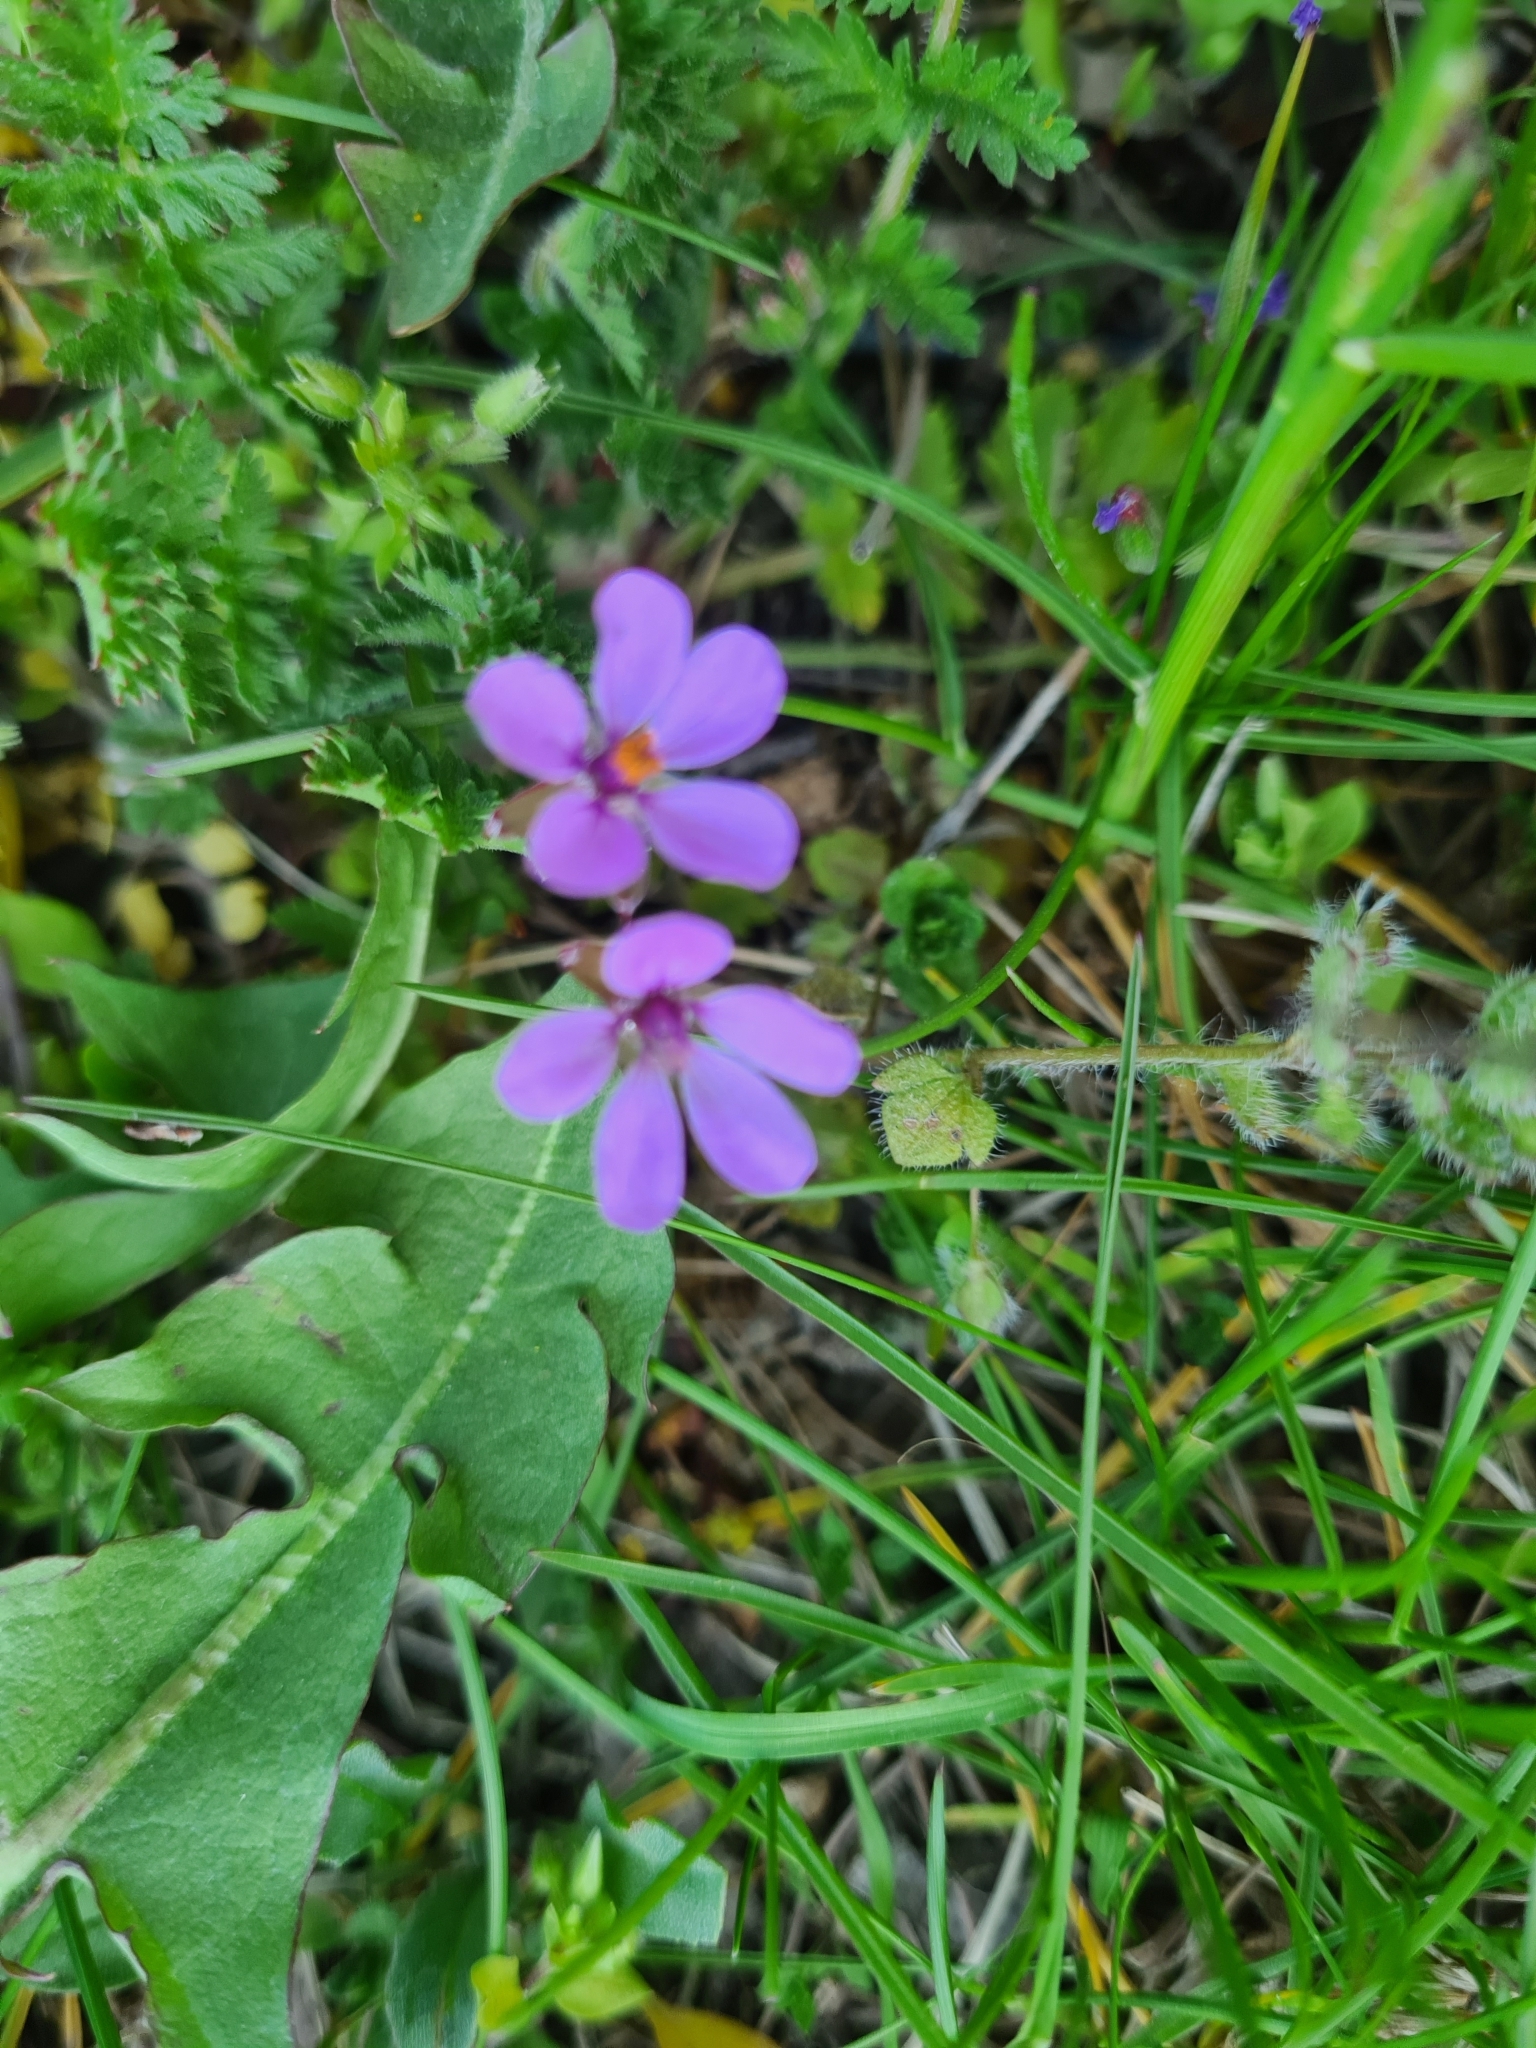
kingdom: Plantae
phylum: Tracheophyta
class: Magnoliopsida
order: Geraniales
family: Geraniaceae
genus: Erodium
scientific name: Erodium cicutarium
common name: Common stork's-bill
